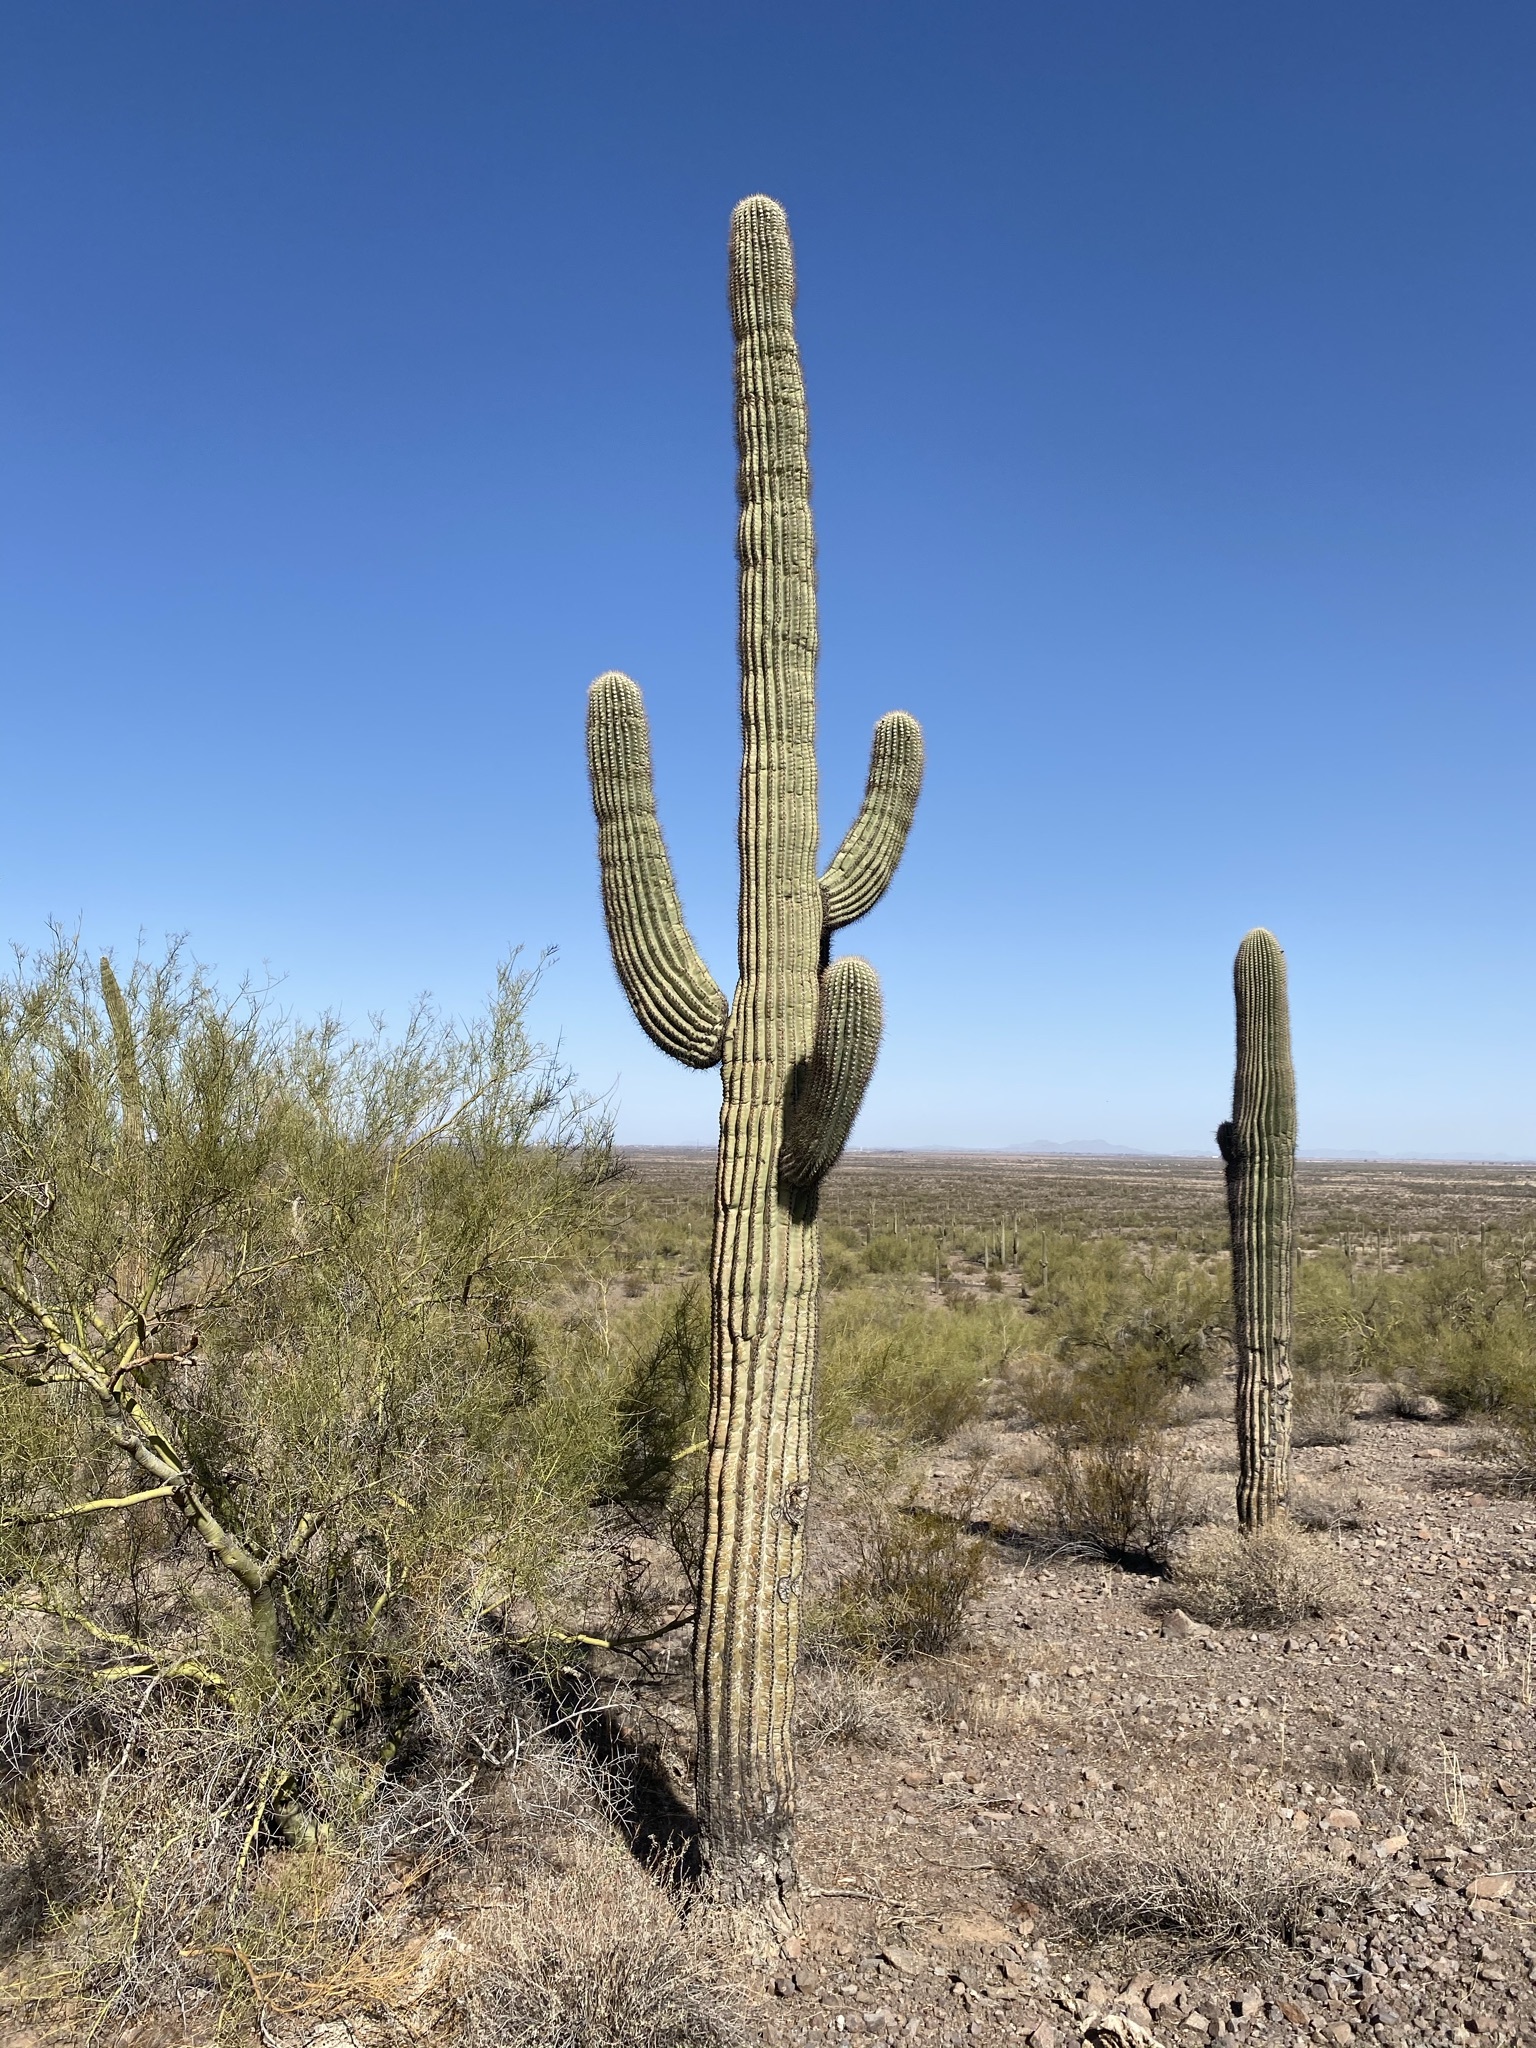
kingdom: Plantae
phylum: Tracheophyta
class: Magnoliopsida
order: Caryophyllales
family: Cactaceae
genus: Carnegiea
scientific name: Carnegiea gigantea
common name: Saguaro
